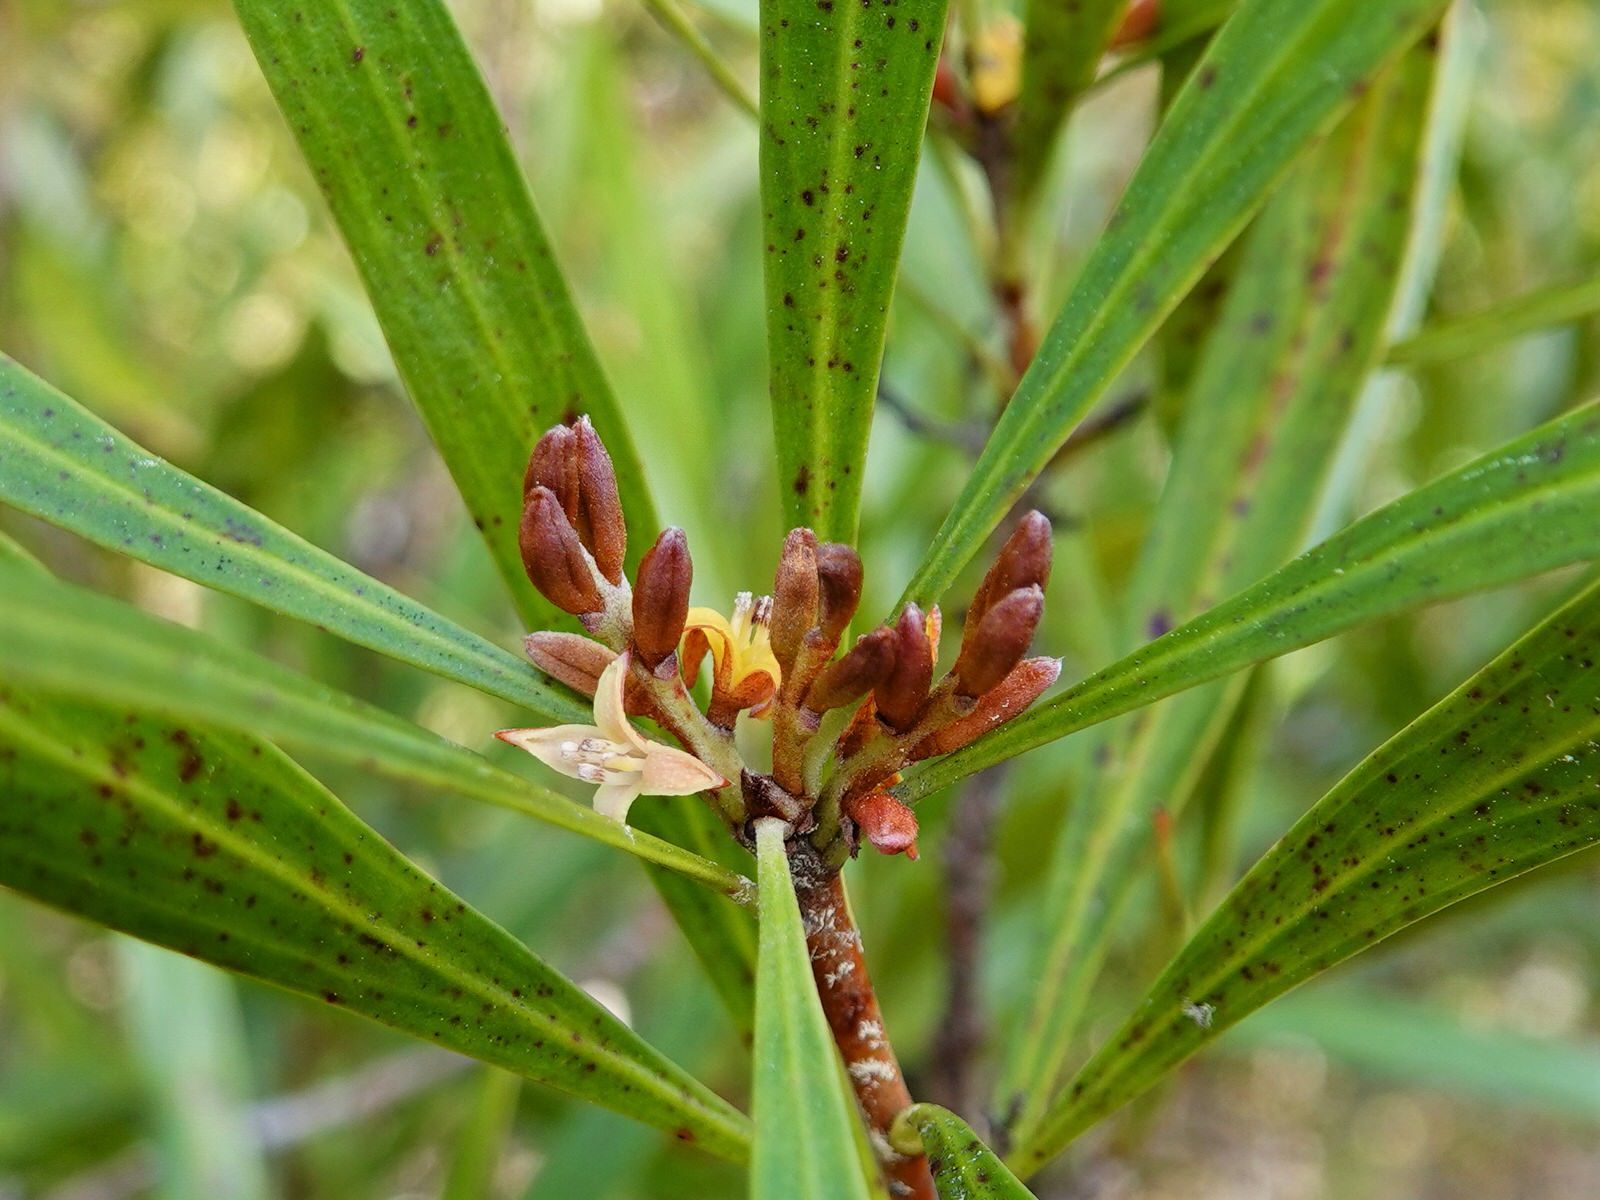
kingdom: Plantae
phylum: Tracheophyta
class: Magnoliopsida
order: Proteales
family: Proteaceae
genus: Toronia
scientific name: Toronia toru
